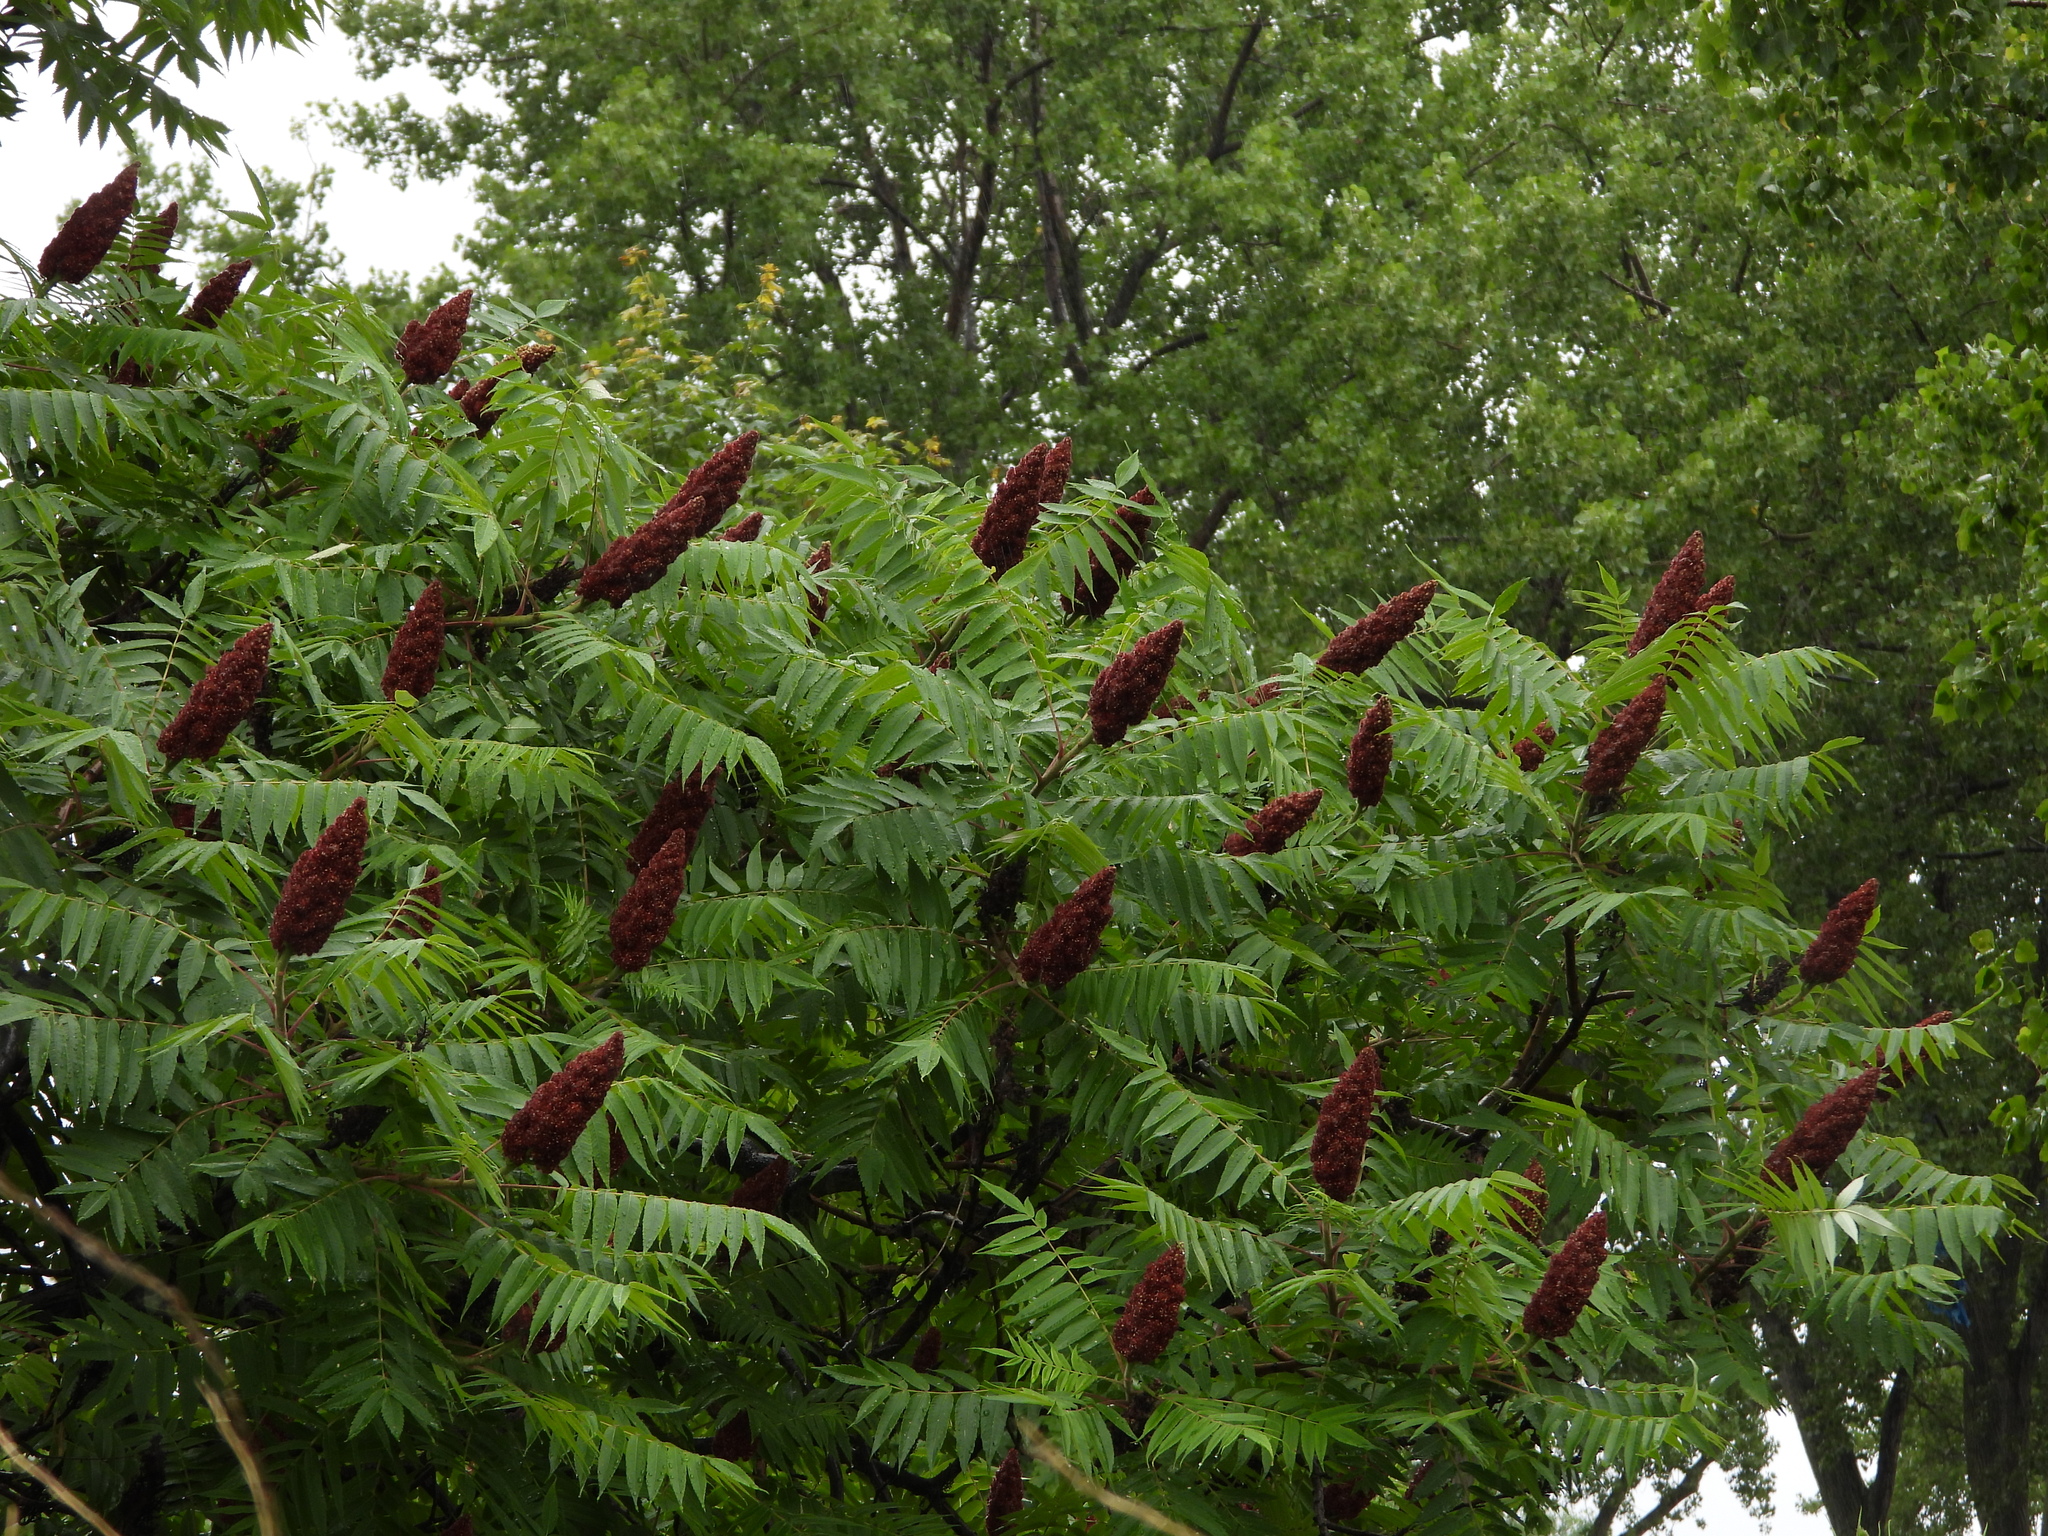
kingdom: Plantae
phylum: Tracheophyta
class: Magnoliopsida
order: Sapindales
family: Anacardiaceae
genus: Rhus
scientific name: Rhus typhina
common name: Staghorn sumac
